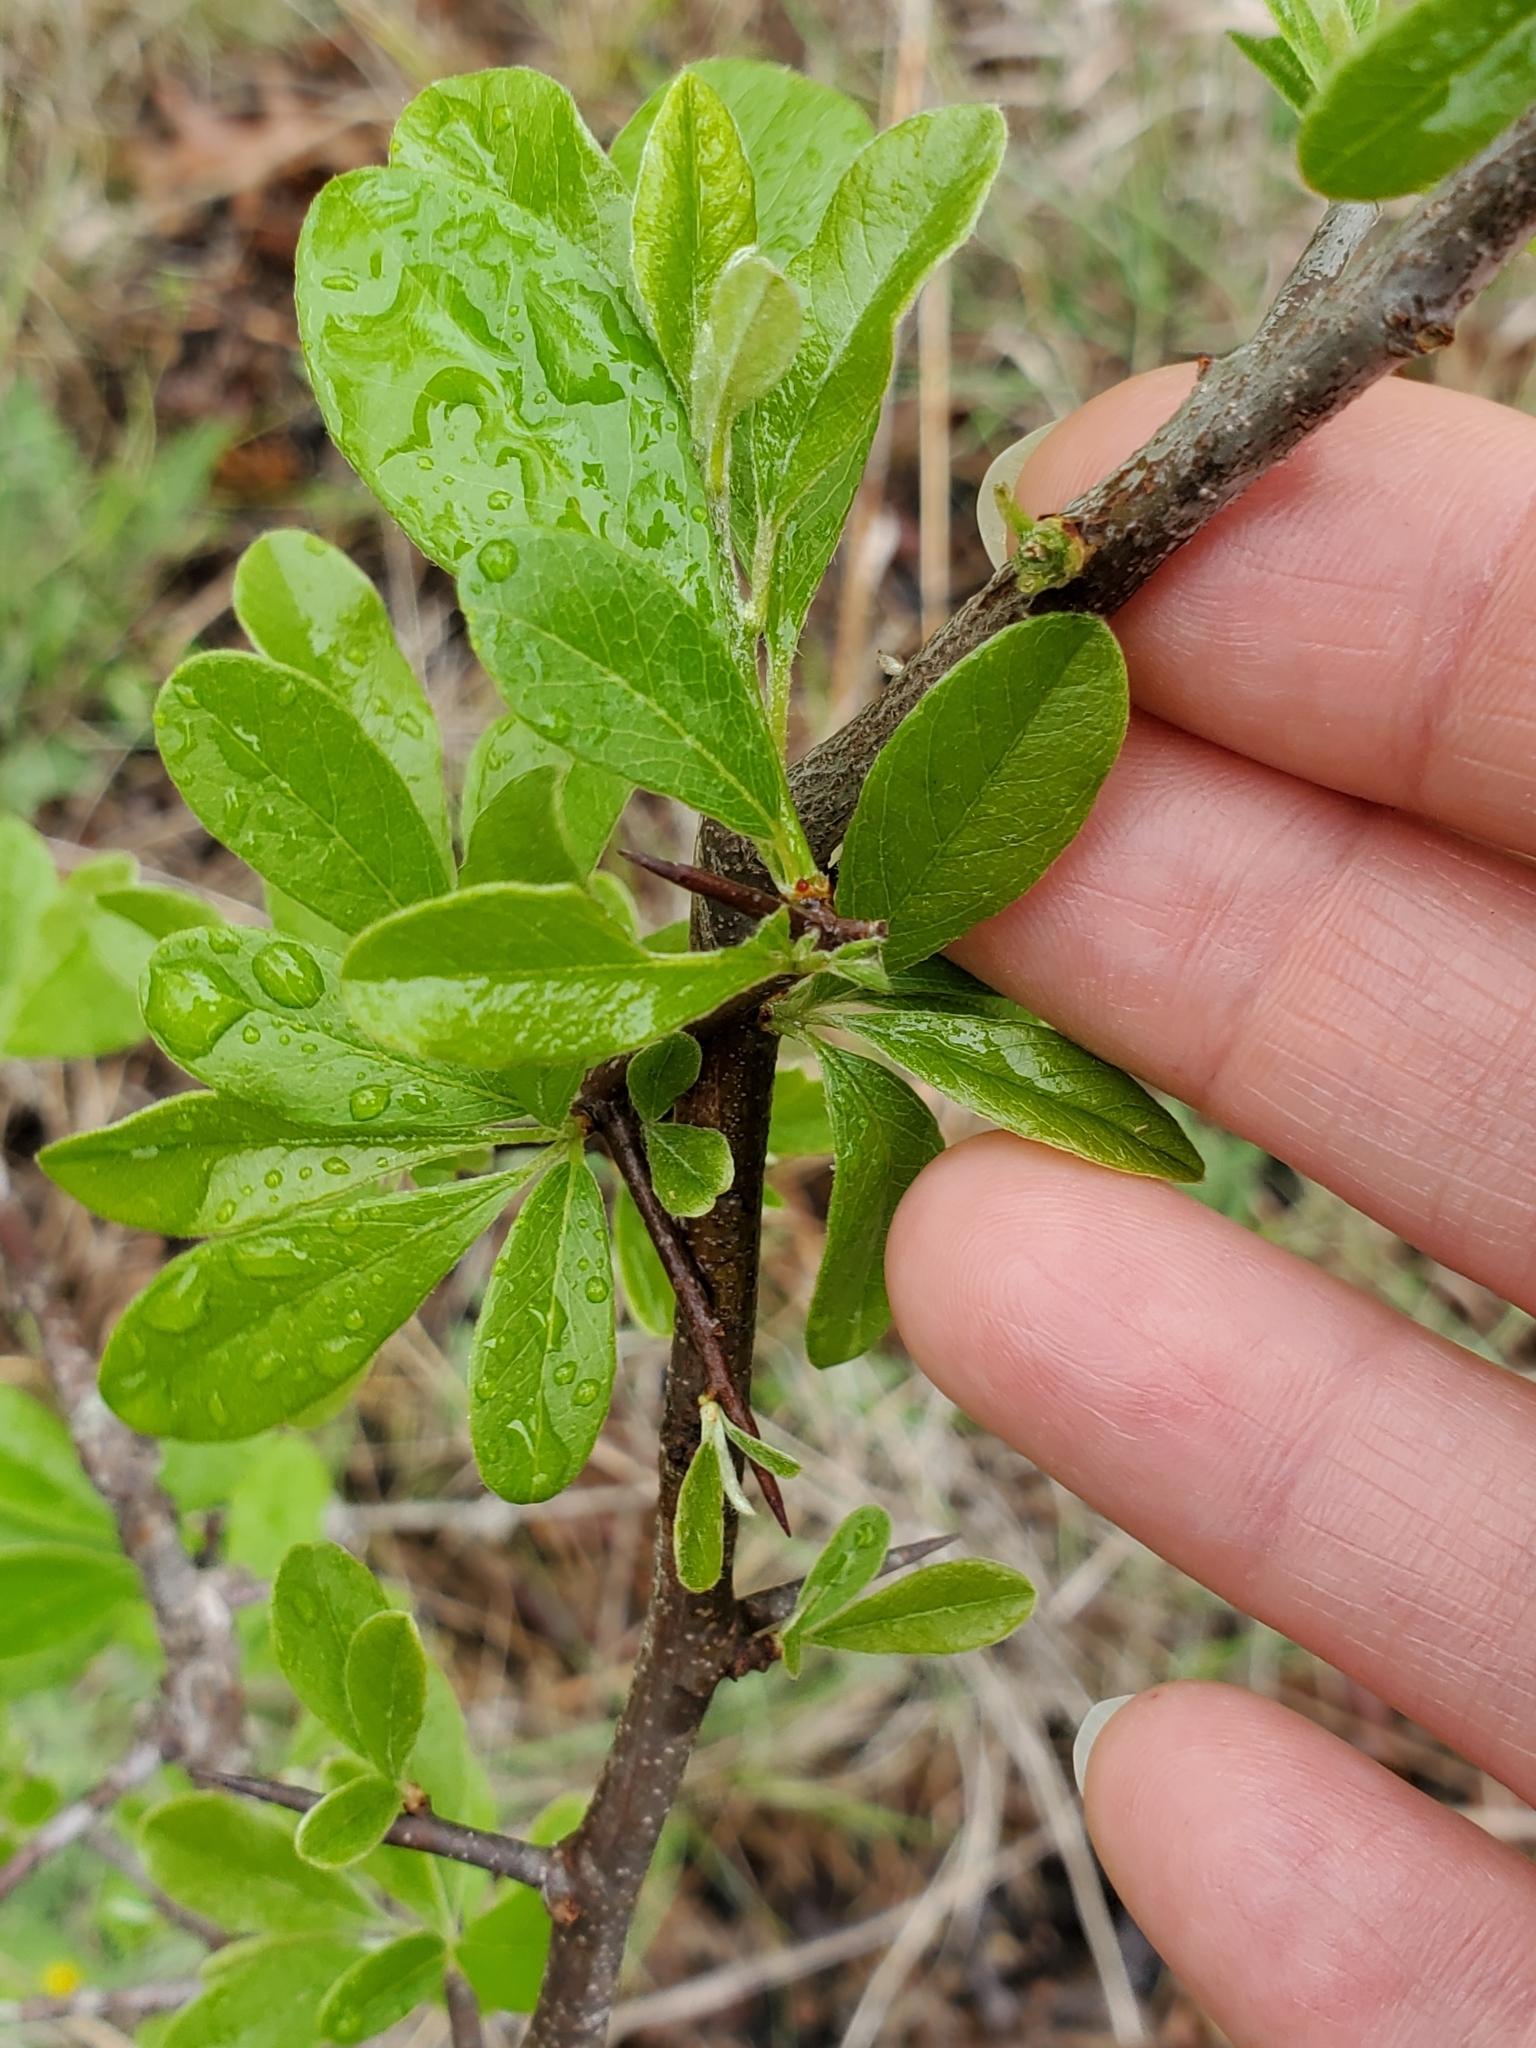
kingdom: Plantae
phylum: Tracheophyta
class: Magnoliopsida
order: Ericales
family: Sapotaceae
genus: Sideroxylon
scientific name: Sideroxylon lanuginosum
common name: Chittamwood
